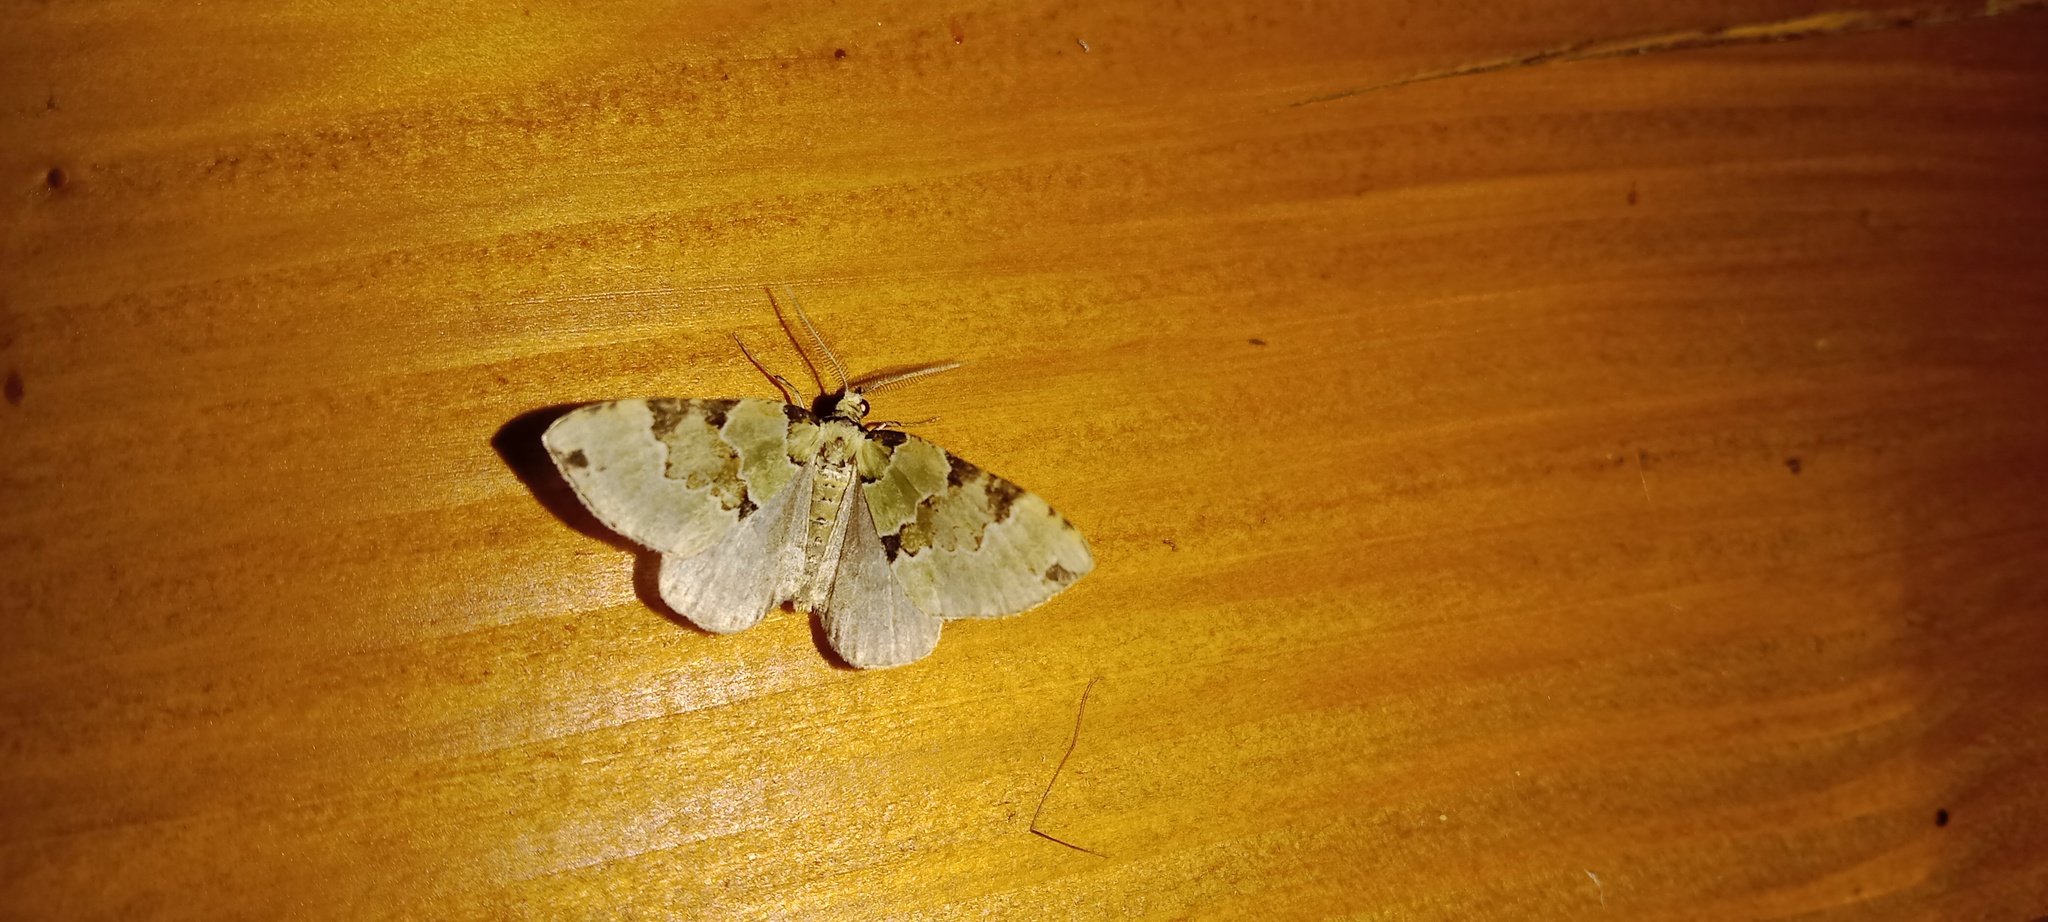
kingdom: Animalia
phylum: Arthropoda
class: Insecta
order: Lepidoptera
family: Geometridae
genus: Colostygia
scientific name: Colostygia pectinataria
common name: Green carpet
